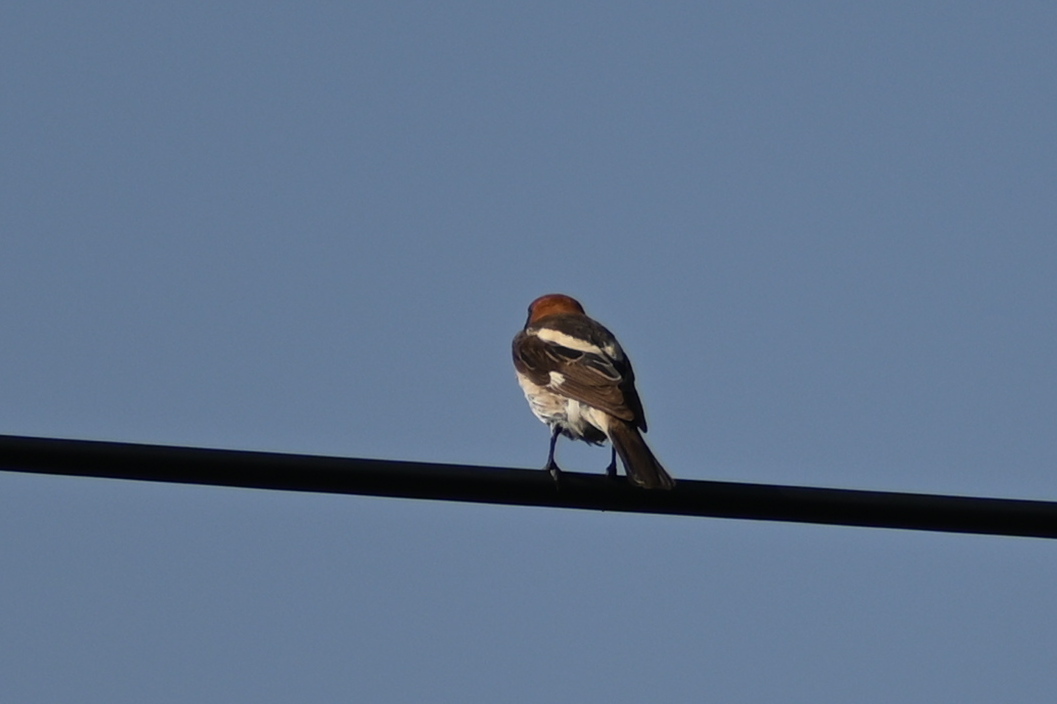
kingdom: Animalia
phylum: Chordata
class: Aves
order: Passeriformes
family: Laniidae
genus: Lanius
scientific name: Lanius senator
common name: Woodchat shrike
